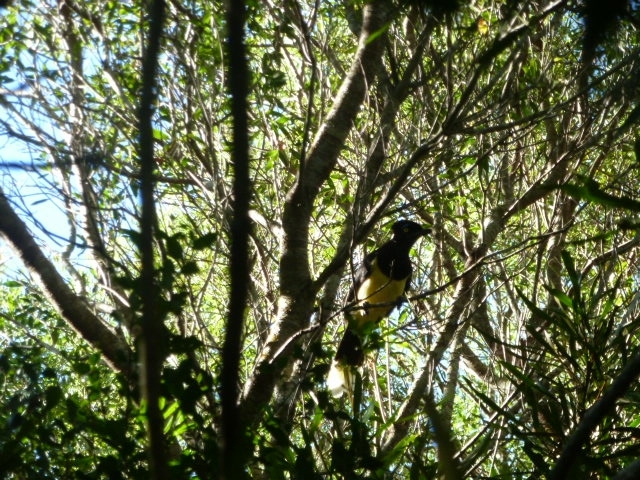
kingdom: Animalia
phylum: Chordata
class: Aves
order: Passeriformes
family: Corvidae
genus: Cyanocorax
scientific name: Cyanocorax chrysops
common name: Plush-crested jay
